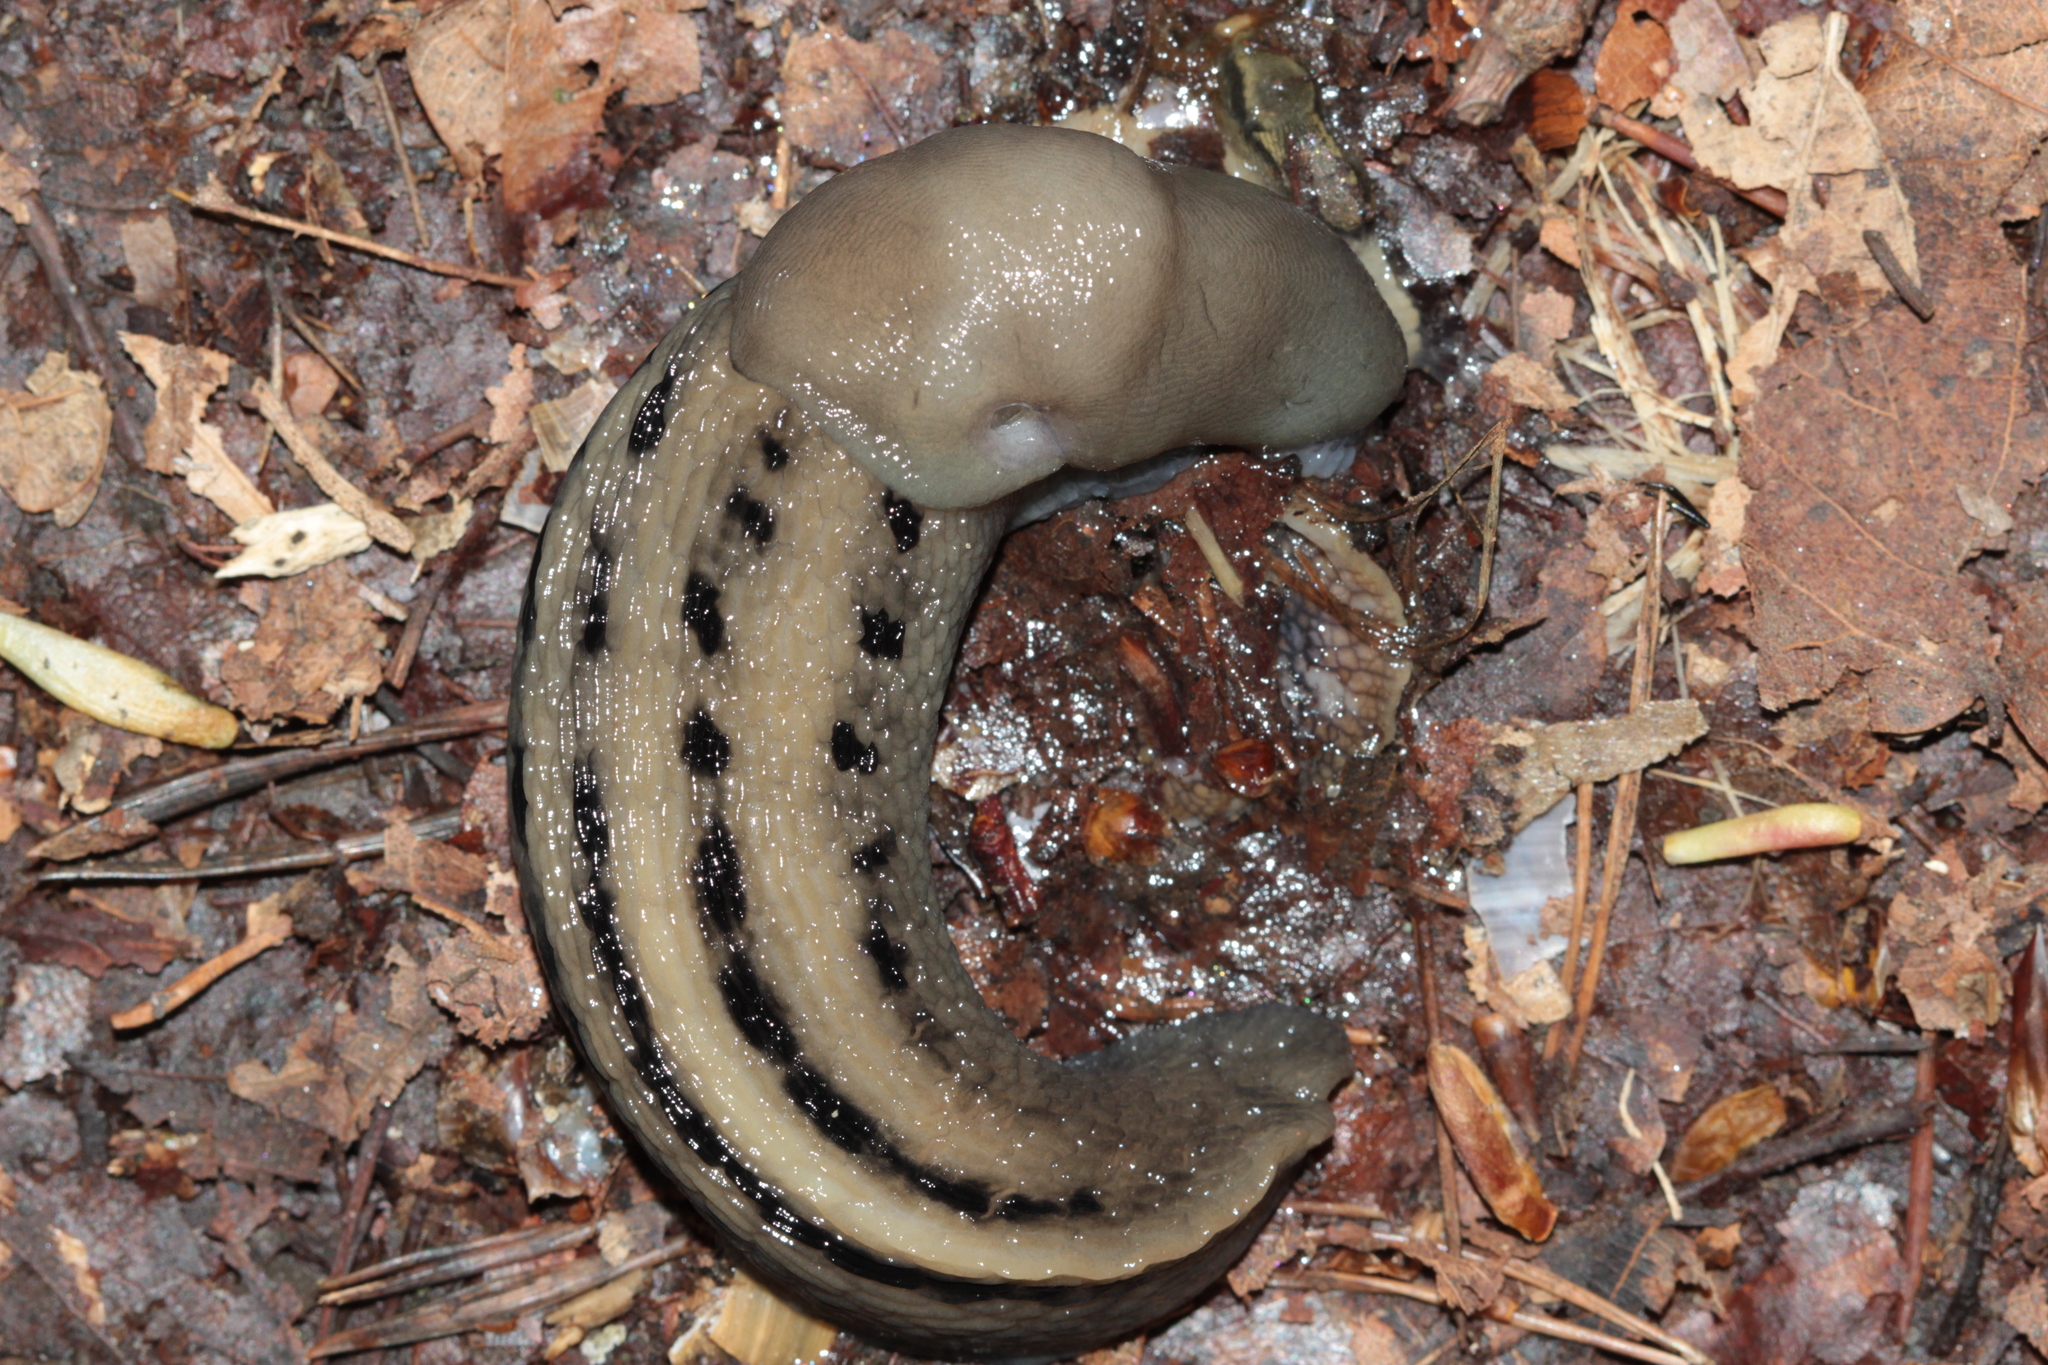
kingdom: Animalia
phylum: Mollusca
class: Gastropoda
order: Stylommatophora
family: Limacidae
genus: Limax
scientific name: Limax cinereoniger
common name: Ash-black slug
